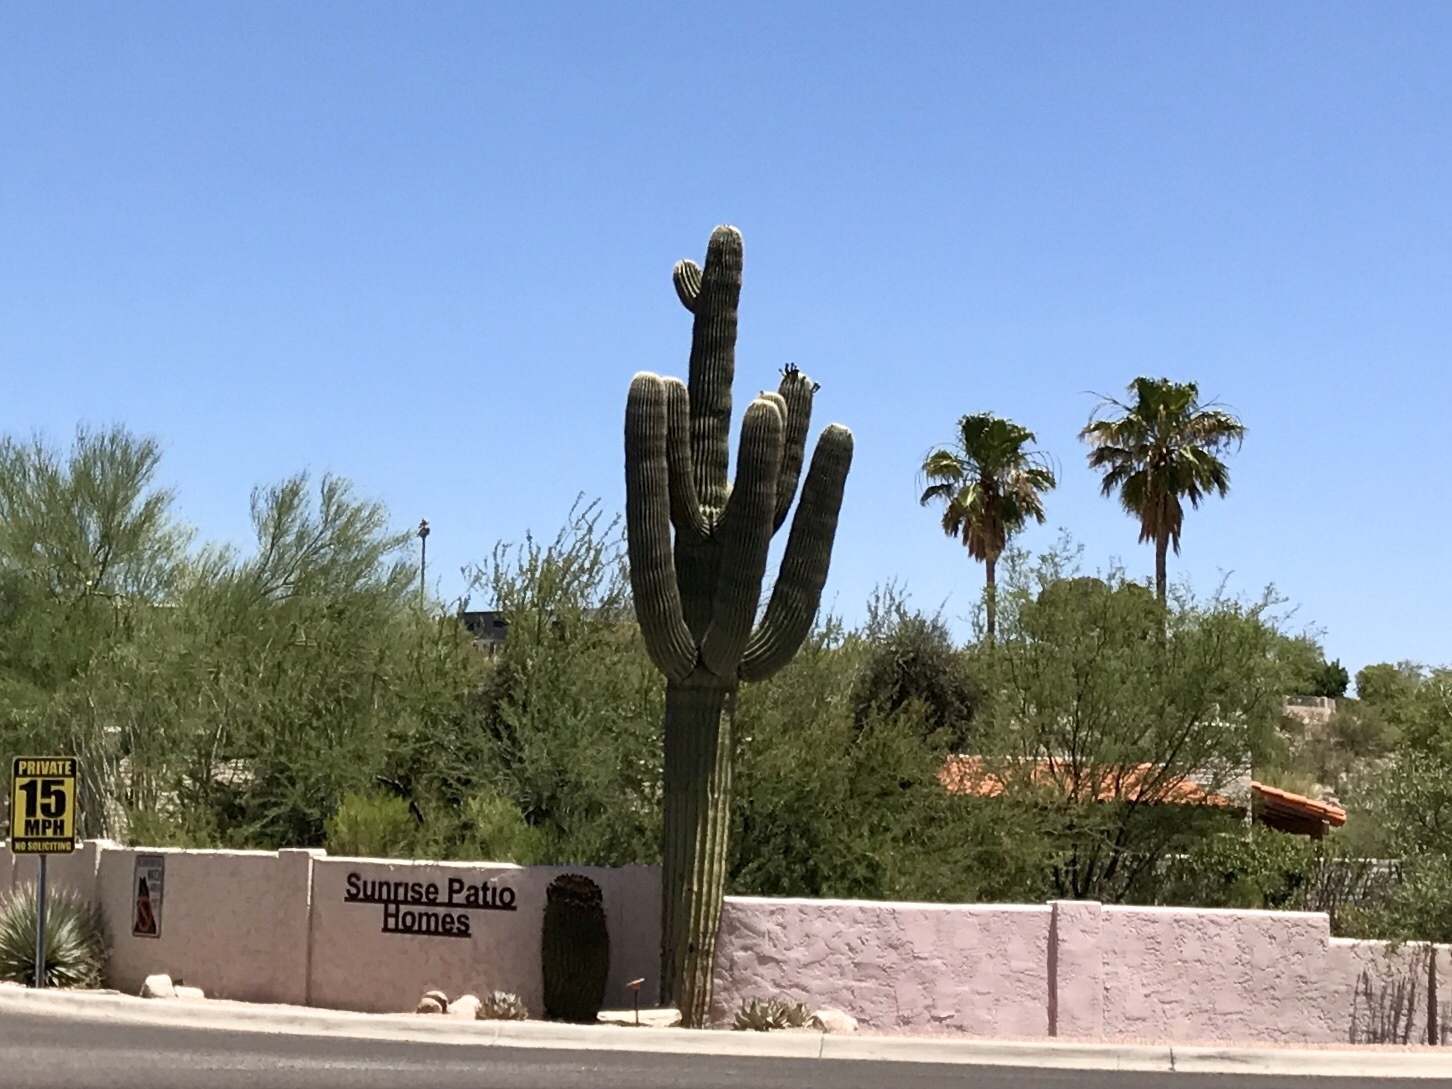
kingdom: Plantae
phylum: Tracheophyta
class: Magnoliopsida
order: Caryophyllales
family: Cactaceae
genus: Carnegiea
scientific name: Carnegiea gigantea
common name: Saguaro
